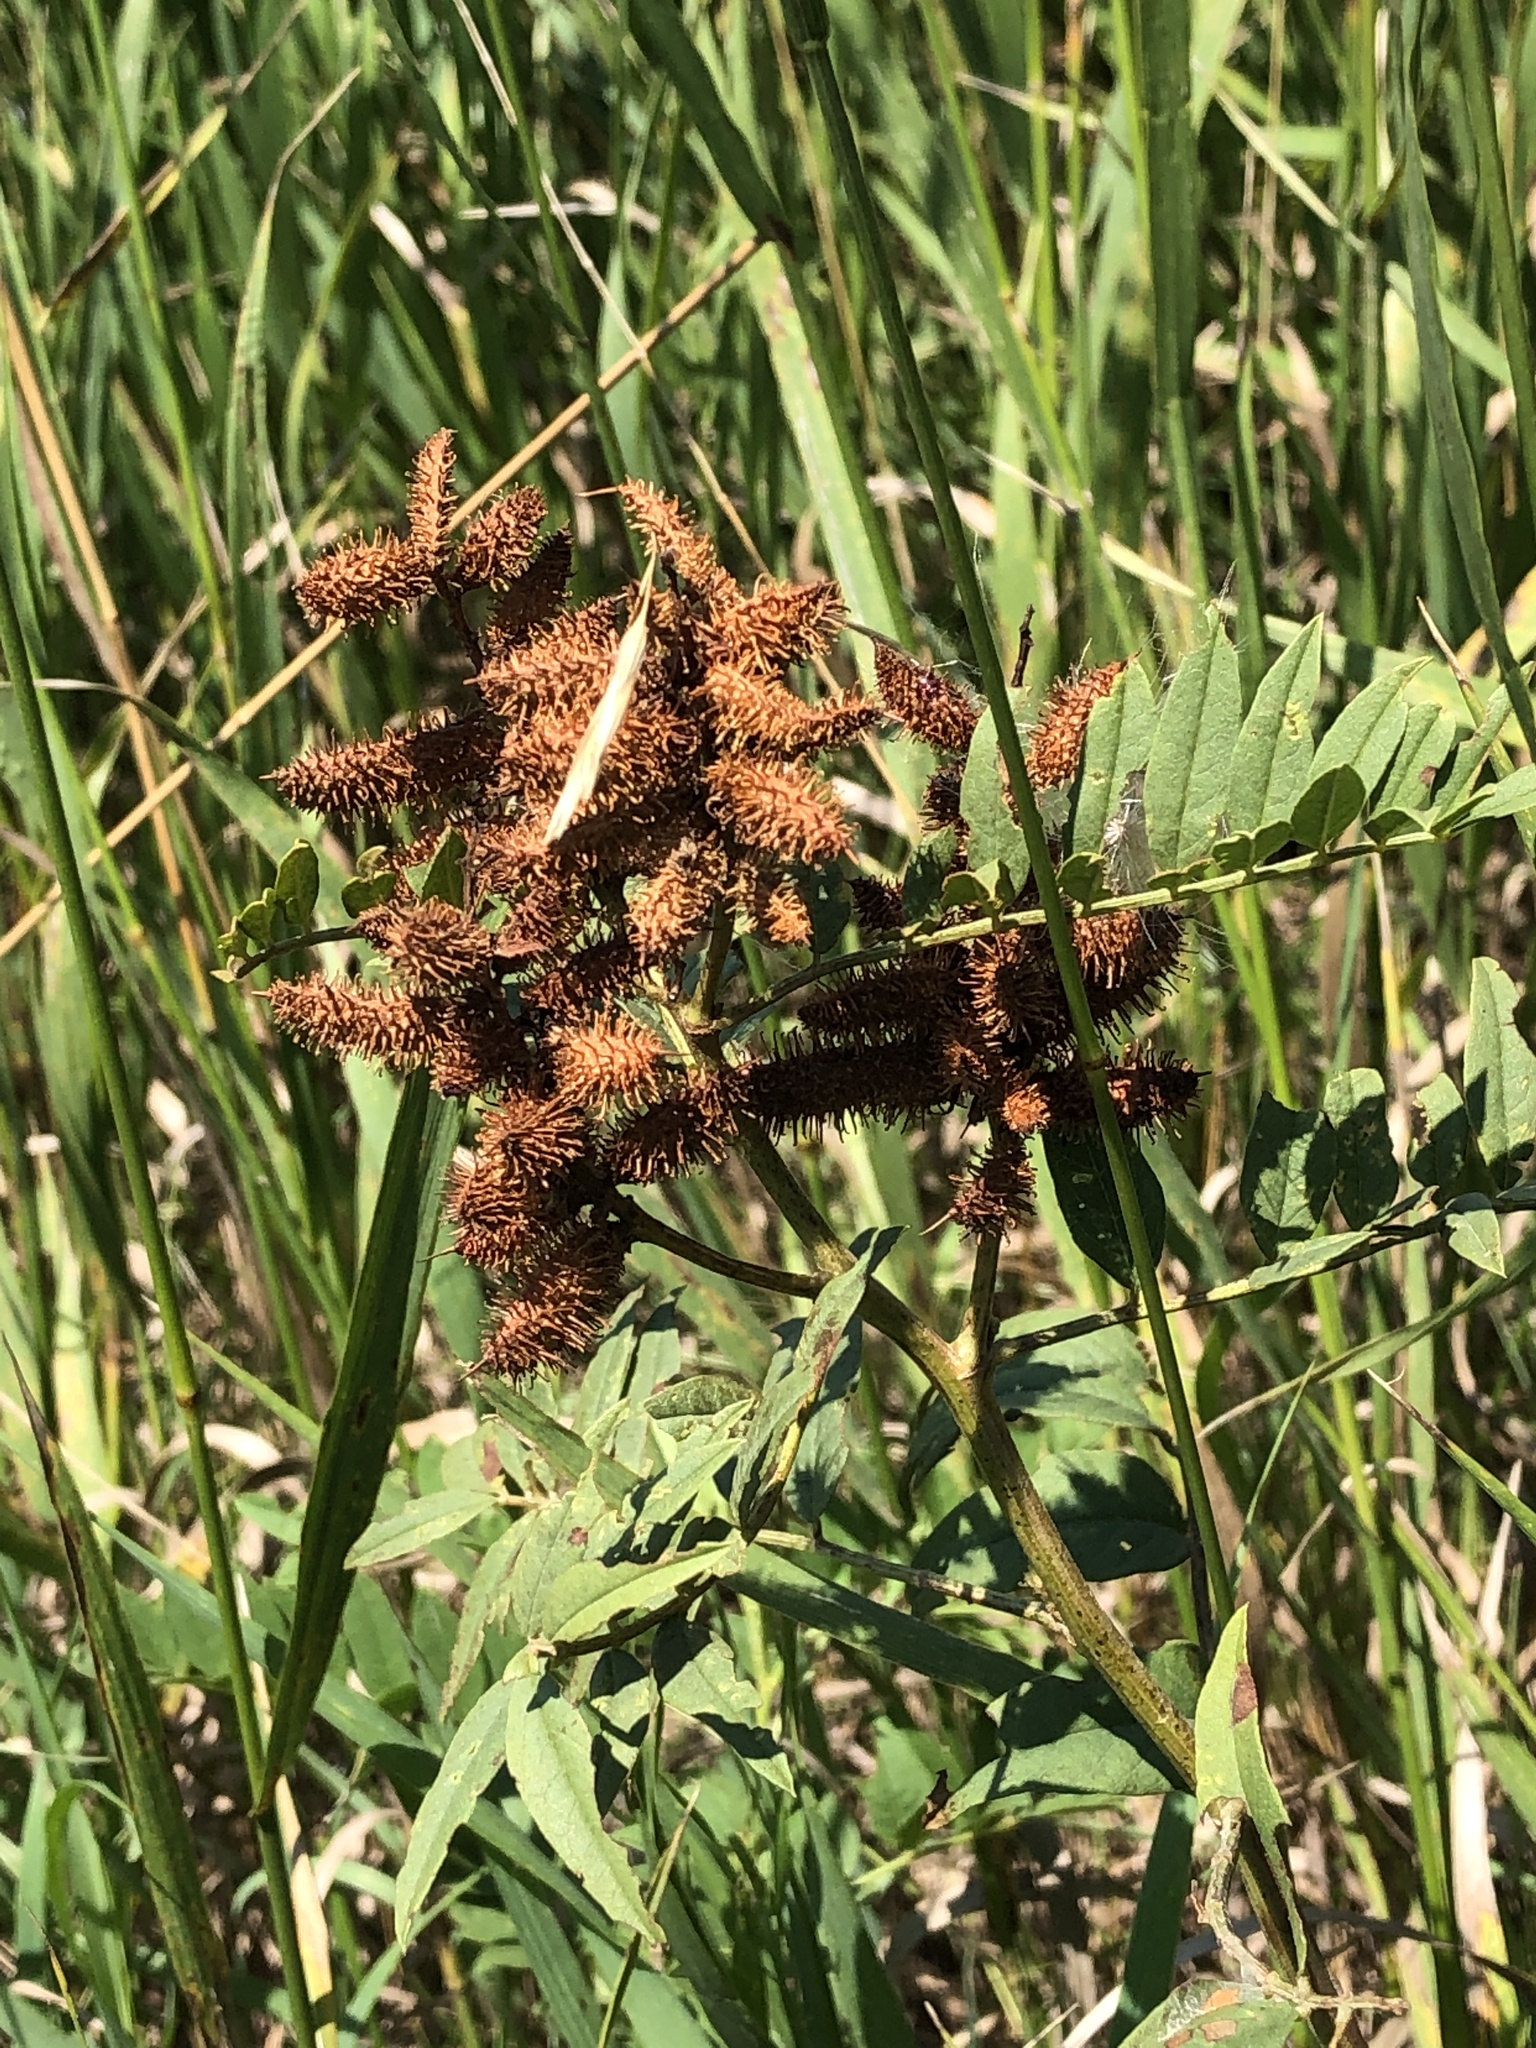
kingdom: Plantae
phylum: Tracheophyta
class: Magnoliopsida
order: Fabales
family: Fabaceae
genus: Glycyrrhiza
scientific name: Glycyrrhiza lepidota
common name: American liquorice
